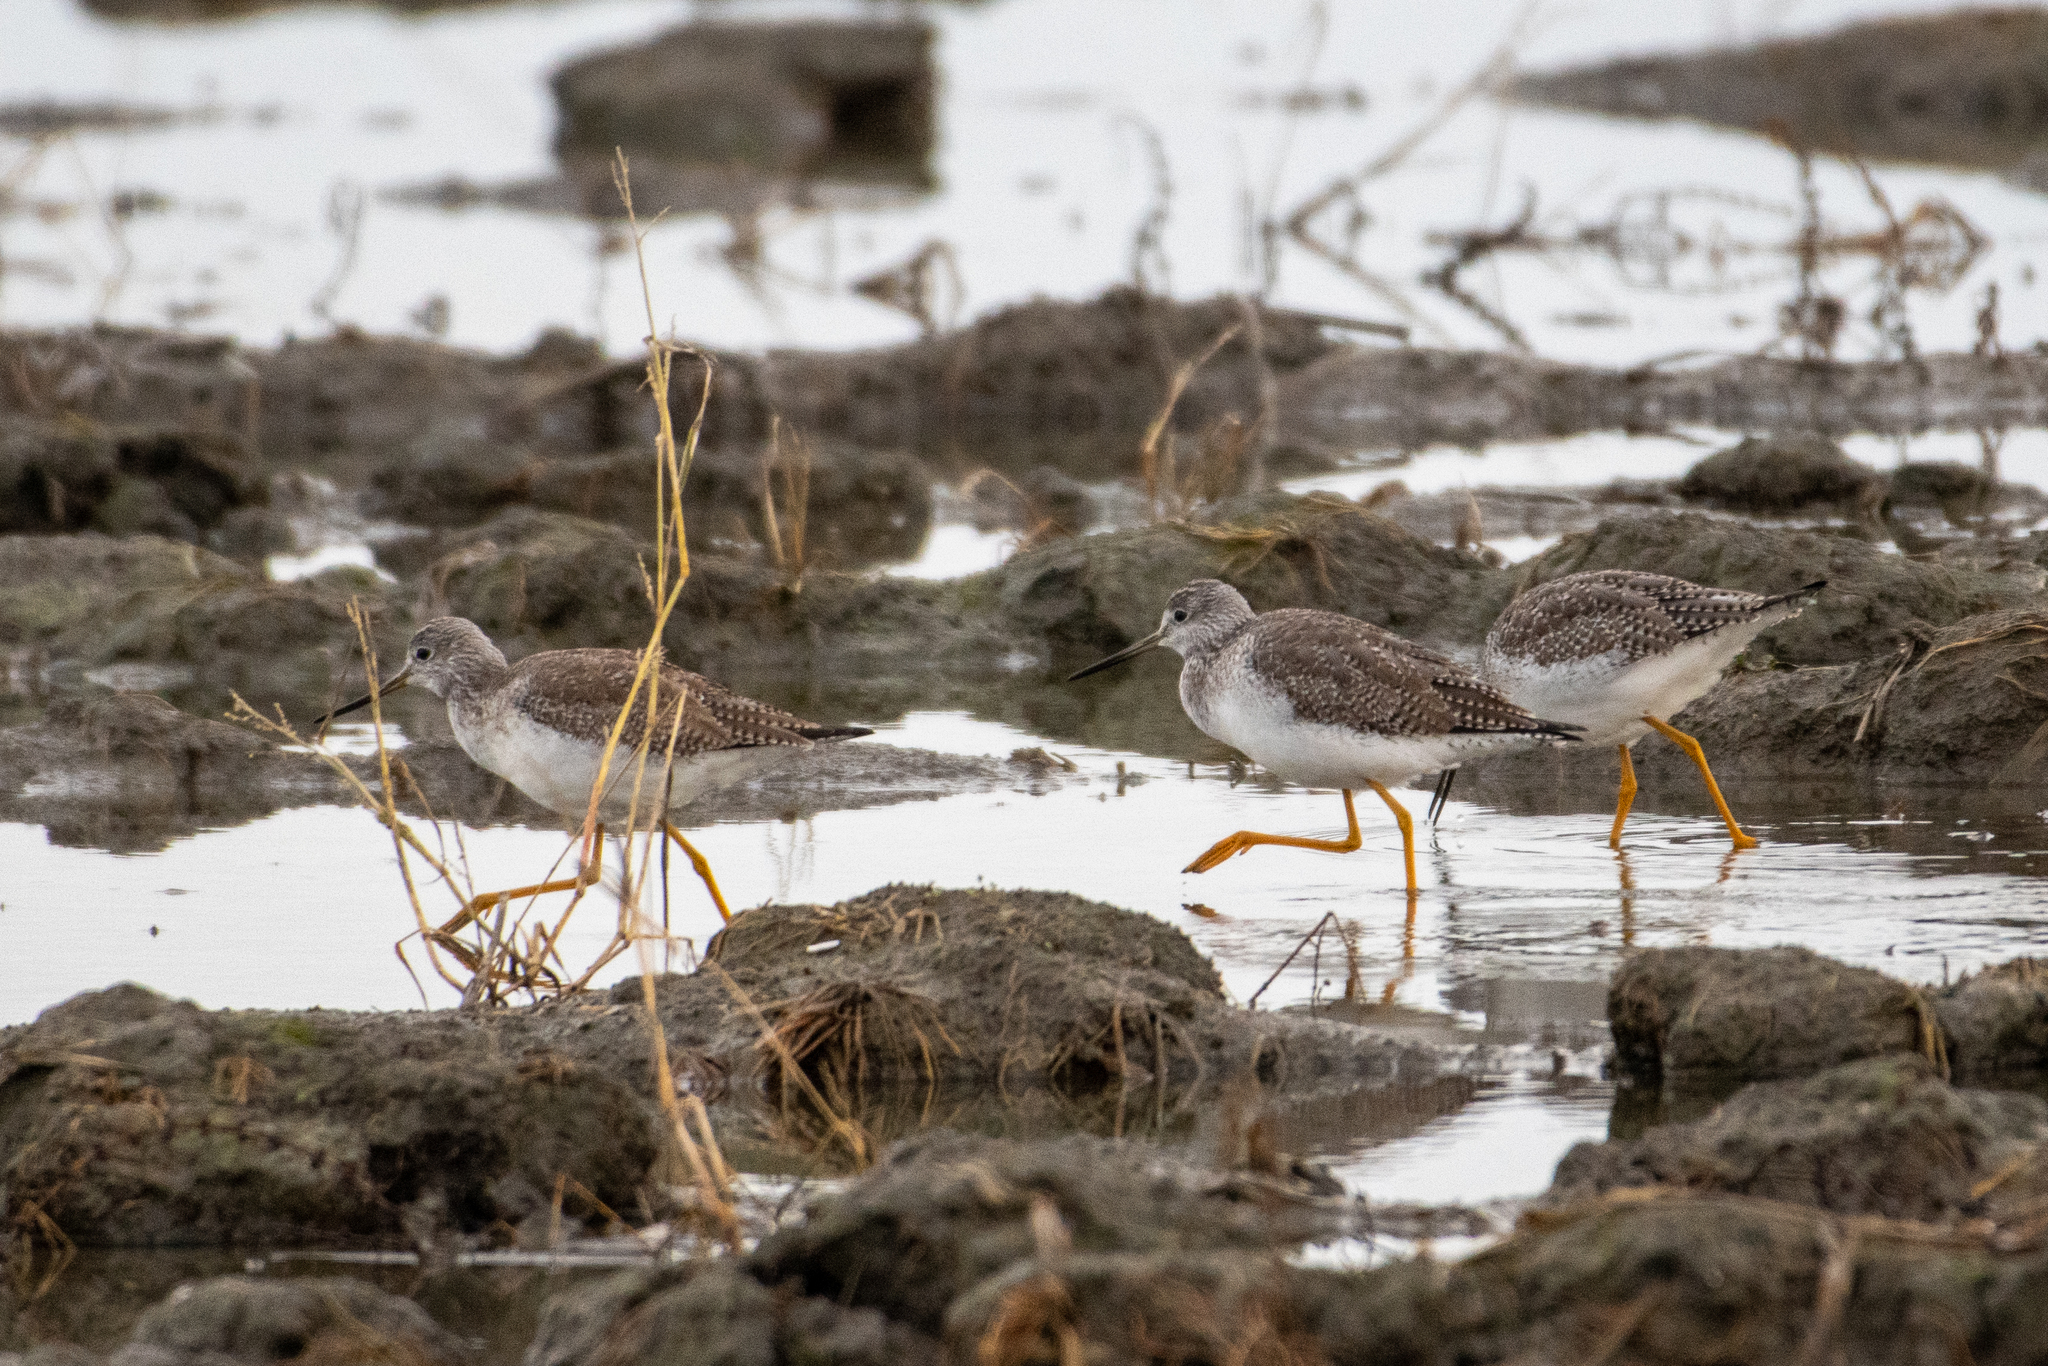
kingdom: Animalia
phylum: Chordata
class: Aves
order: Charadriiformes
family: Scolopacidae
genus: Tringa
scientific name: Tringa melanoleuca
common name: Greater yellowlegs
